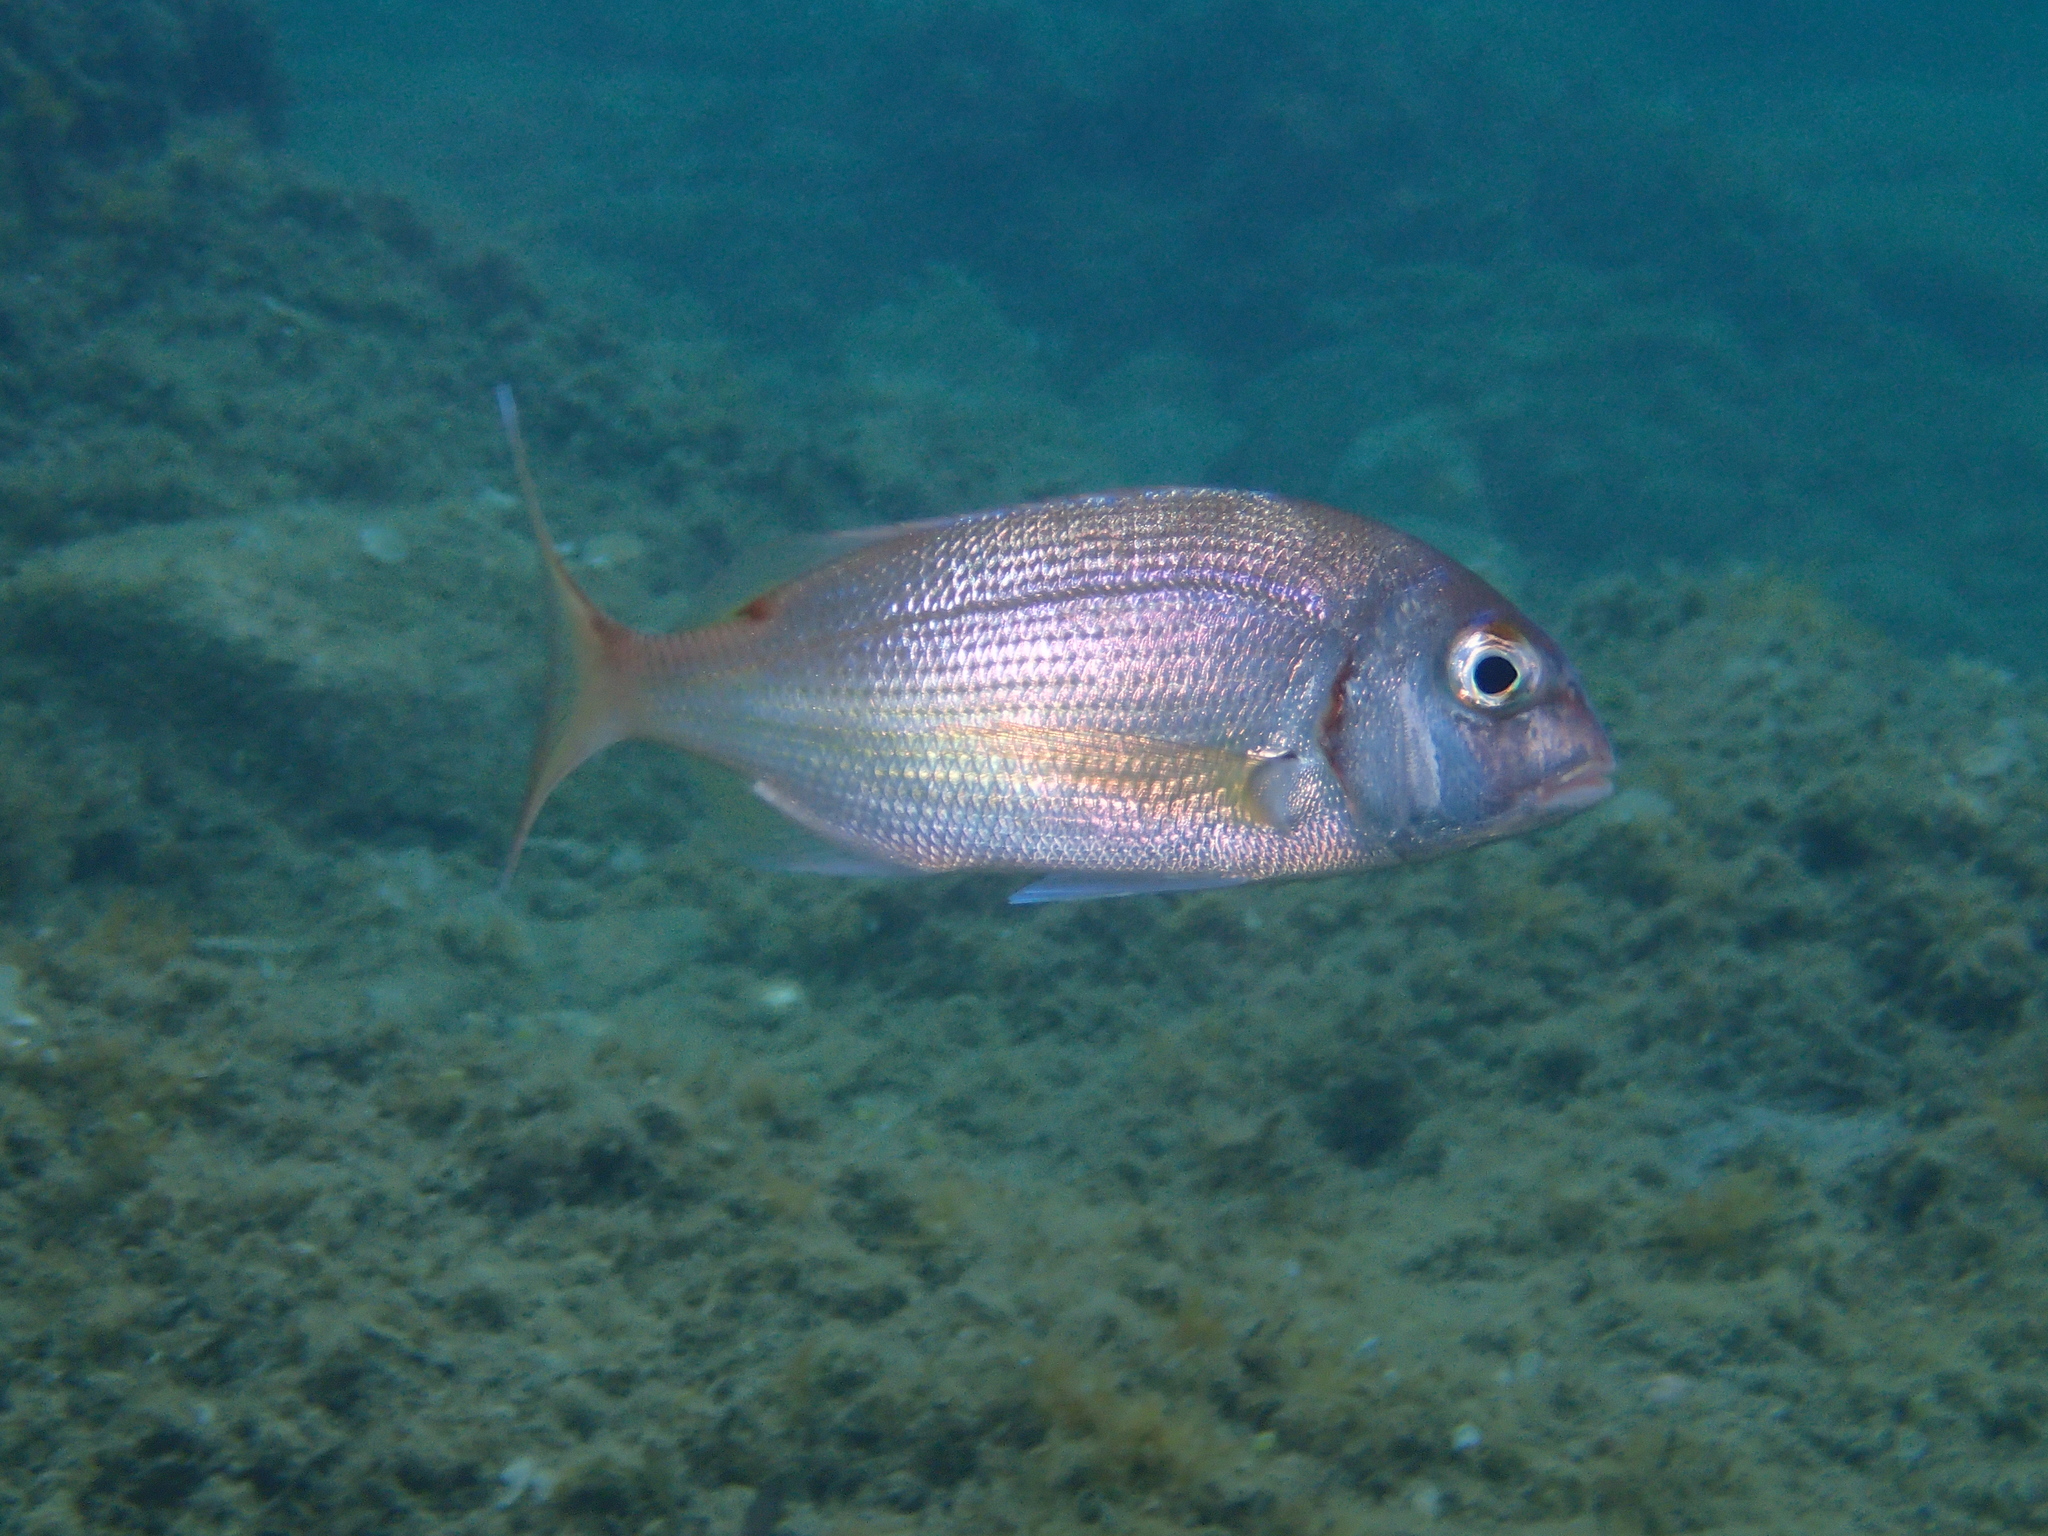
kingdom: Animalia
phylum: Chordata
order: Perciformes
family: Sparidae
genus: Pagrus
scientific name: Pagrus pagrus
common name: Red porgy
